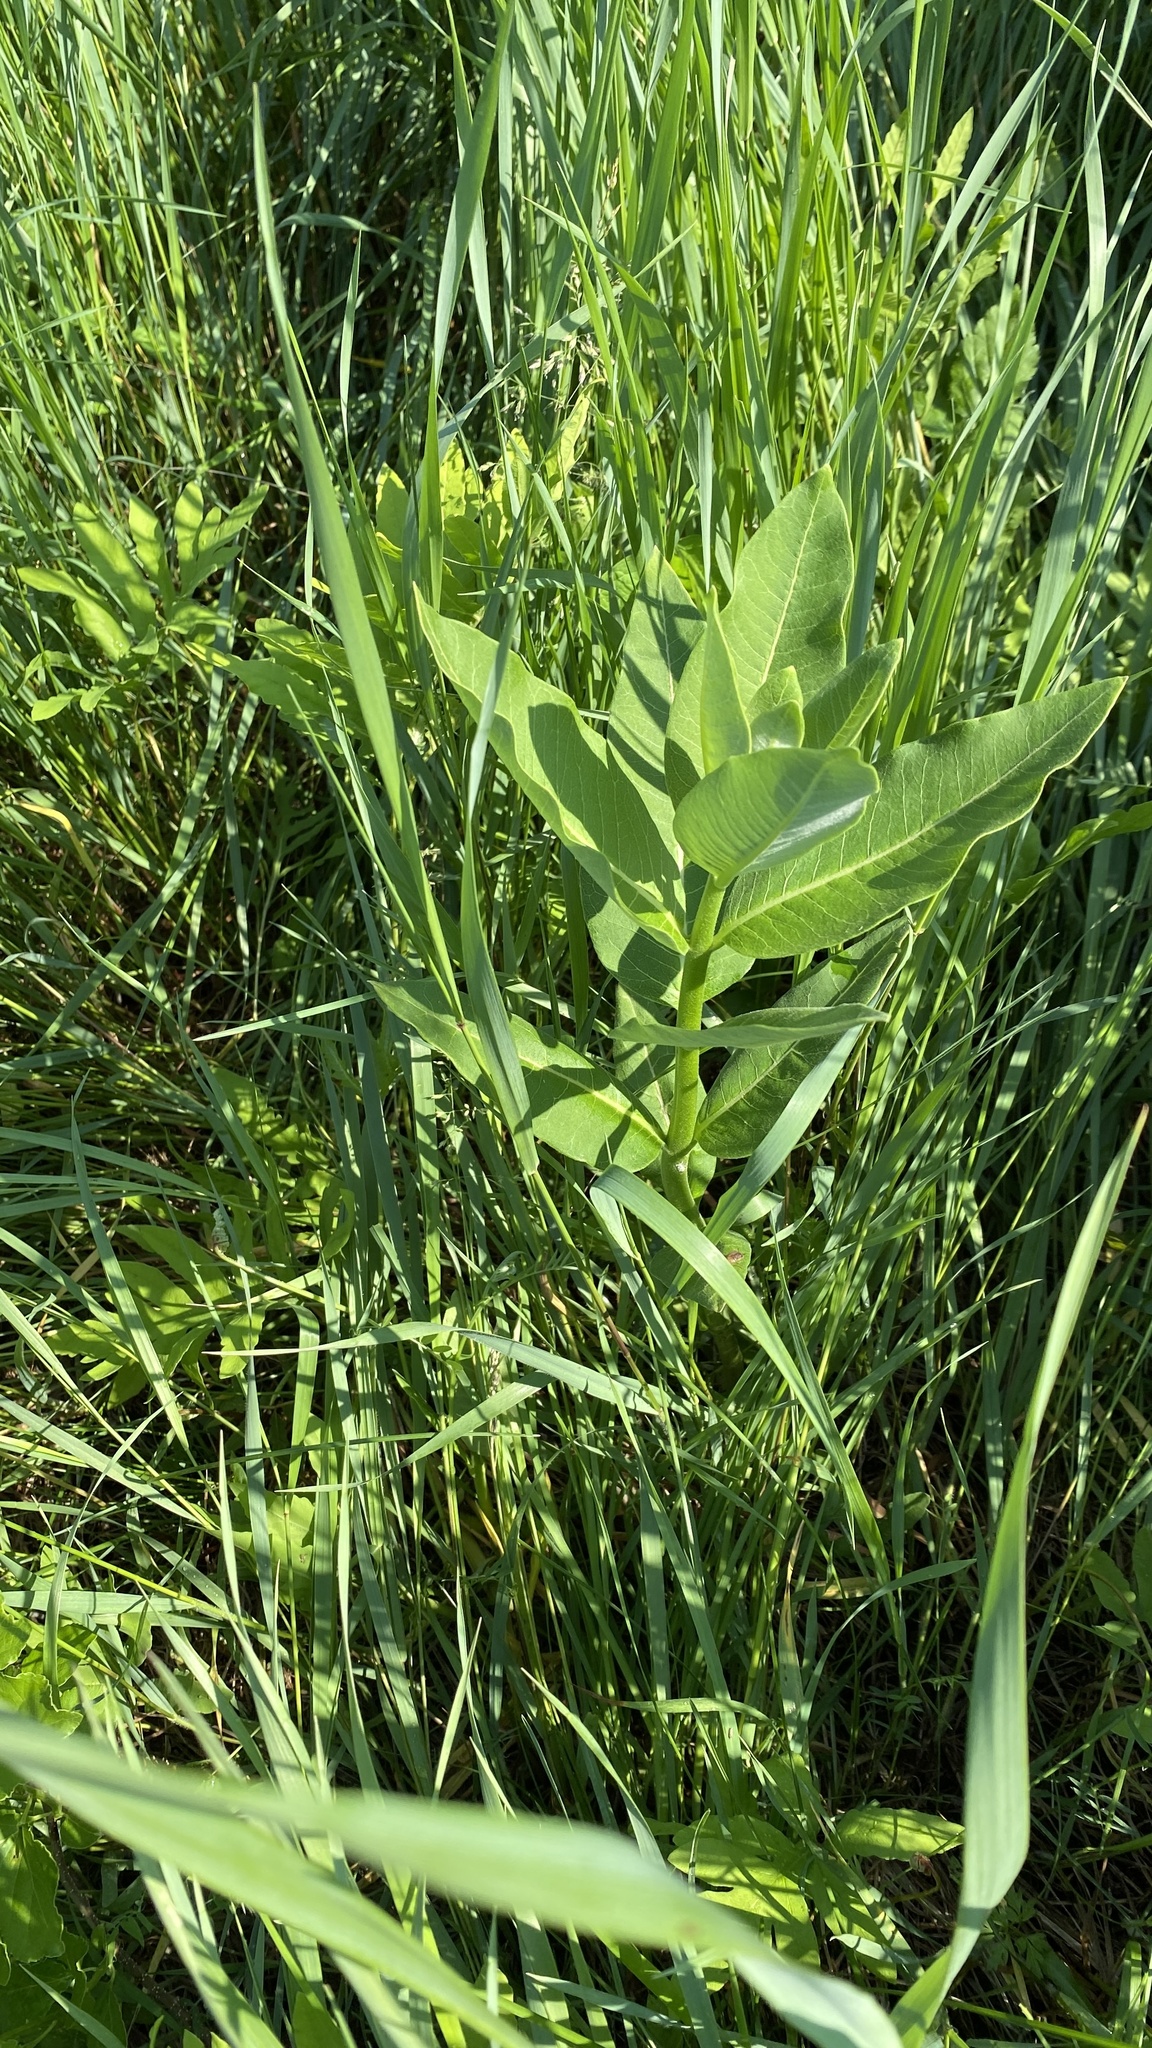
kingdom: Plantae
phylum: Tracheophyta
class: Magnoliopsida
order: Gentianales
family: Apocynaceae
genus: Asclepias
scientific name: Asclepias syriaca
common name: Common milkweed
